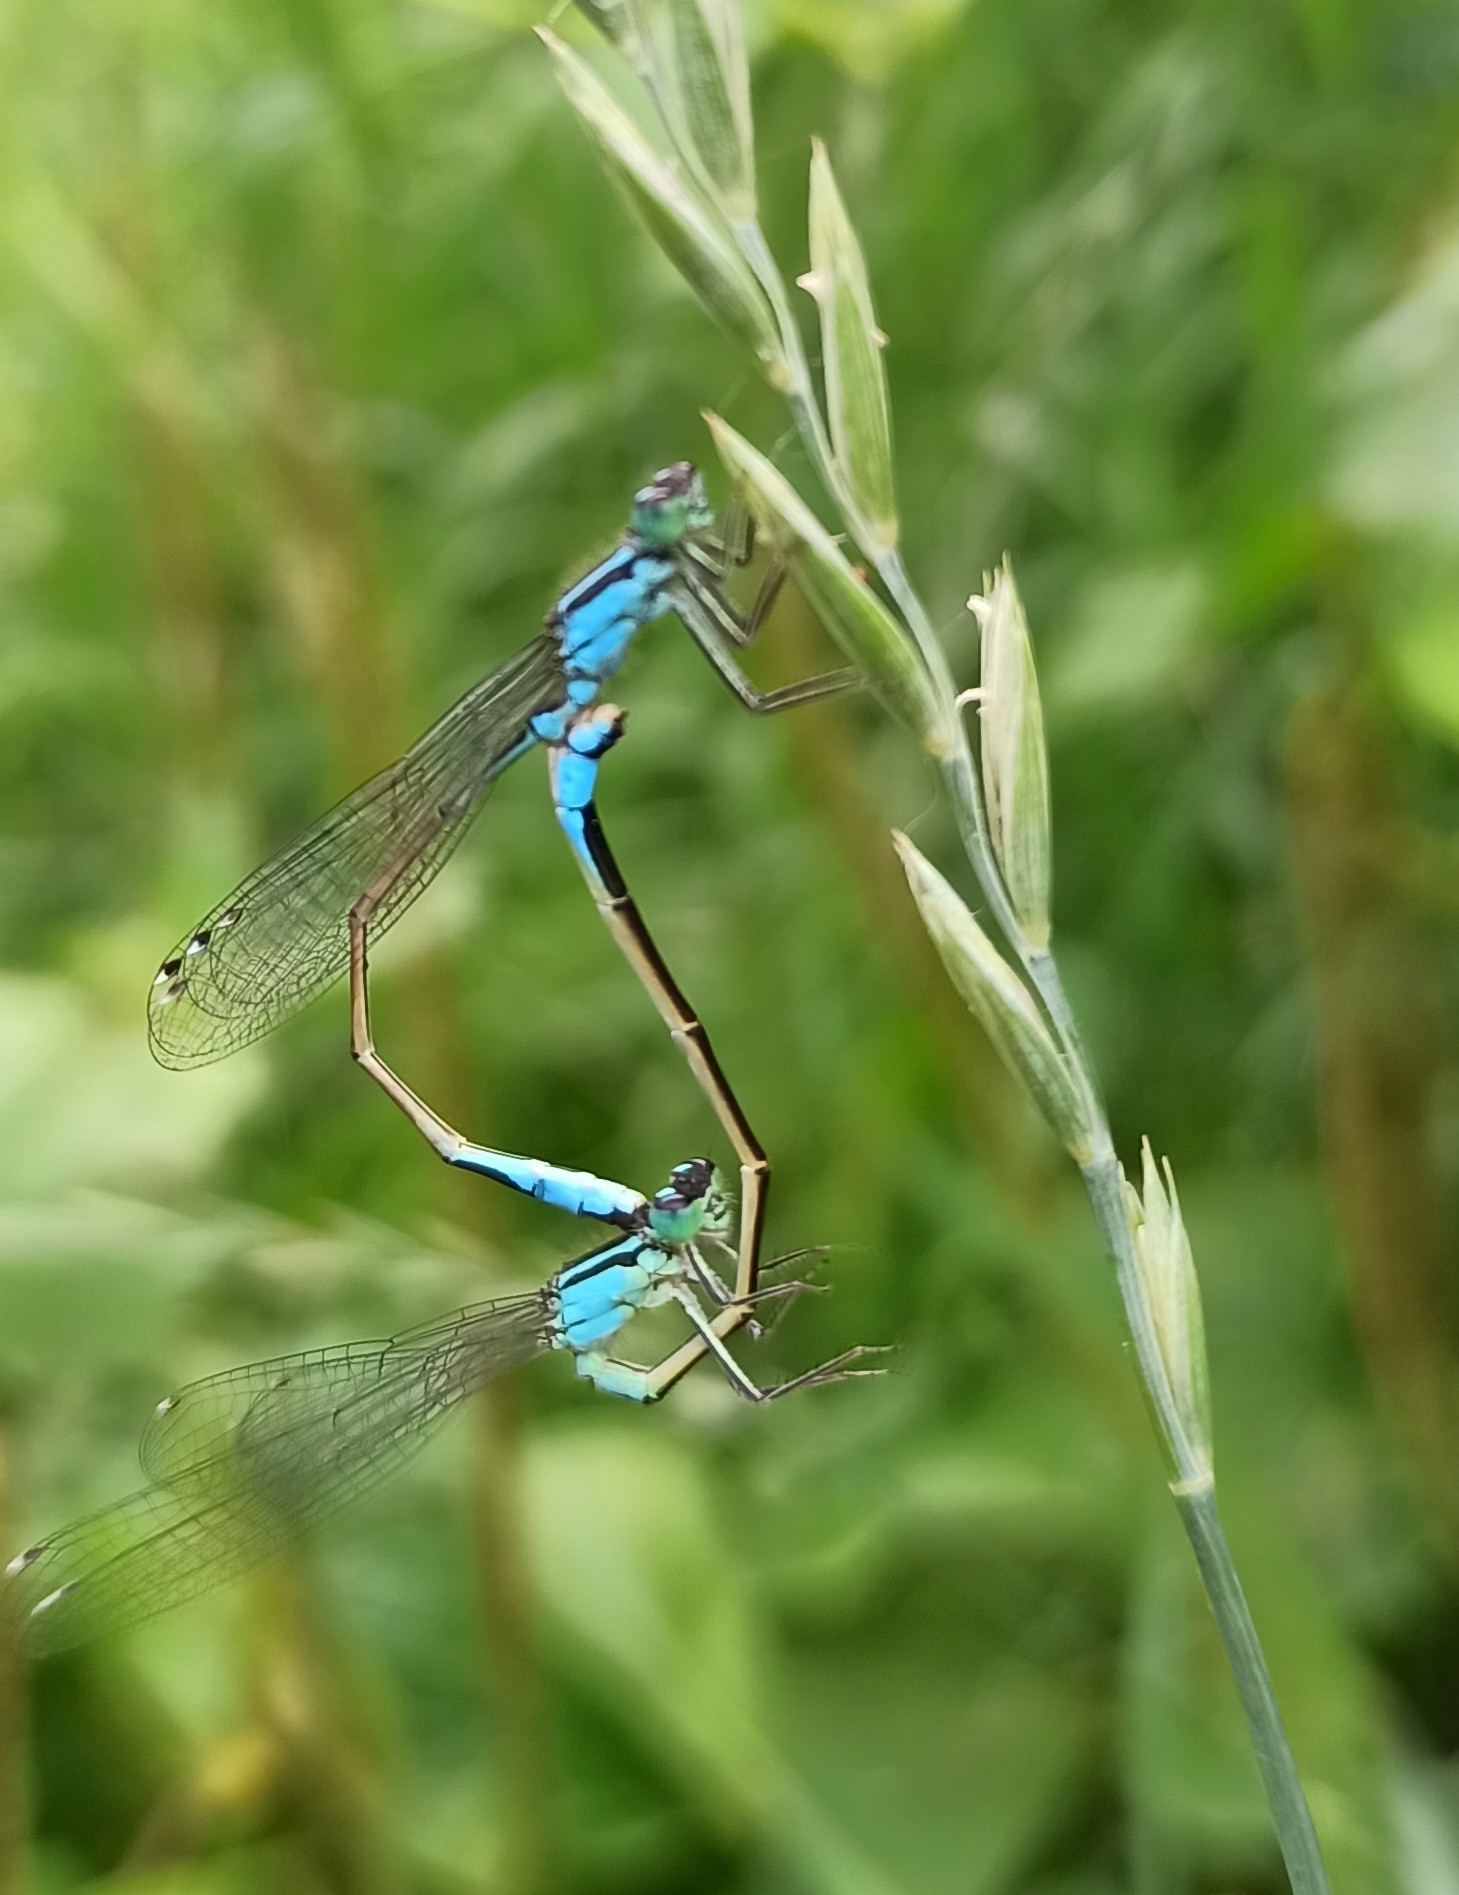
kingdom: Animalia
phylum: Arthropoda
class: Insecta
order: Odonata
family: Coenagrionidae
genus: Ischnura
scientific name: Ischnura elegans
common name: Blue-tailed damselfly
